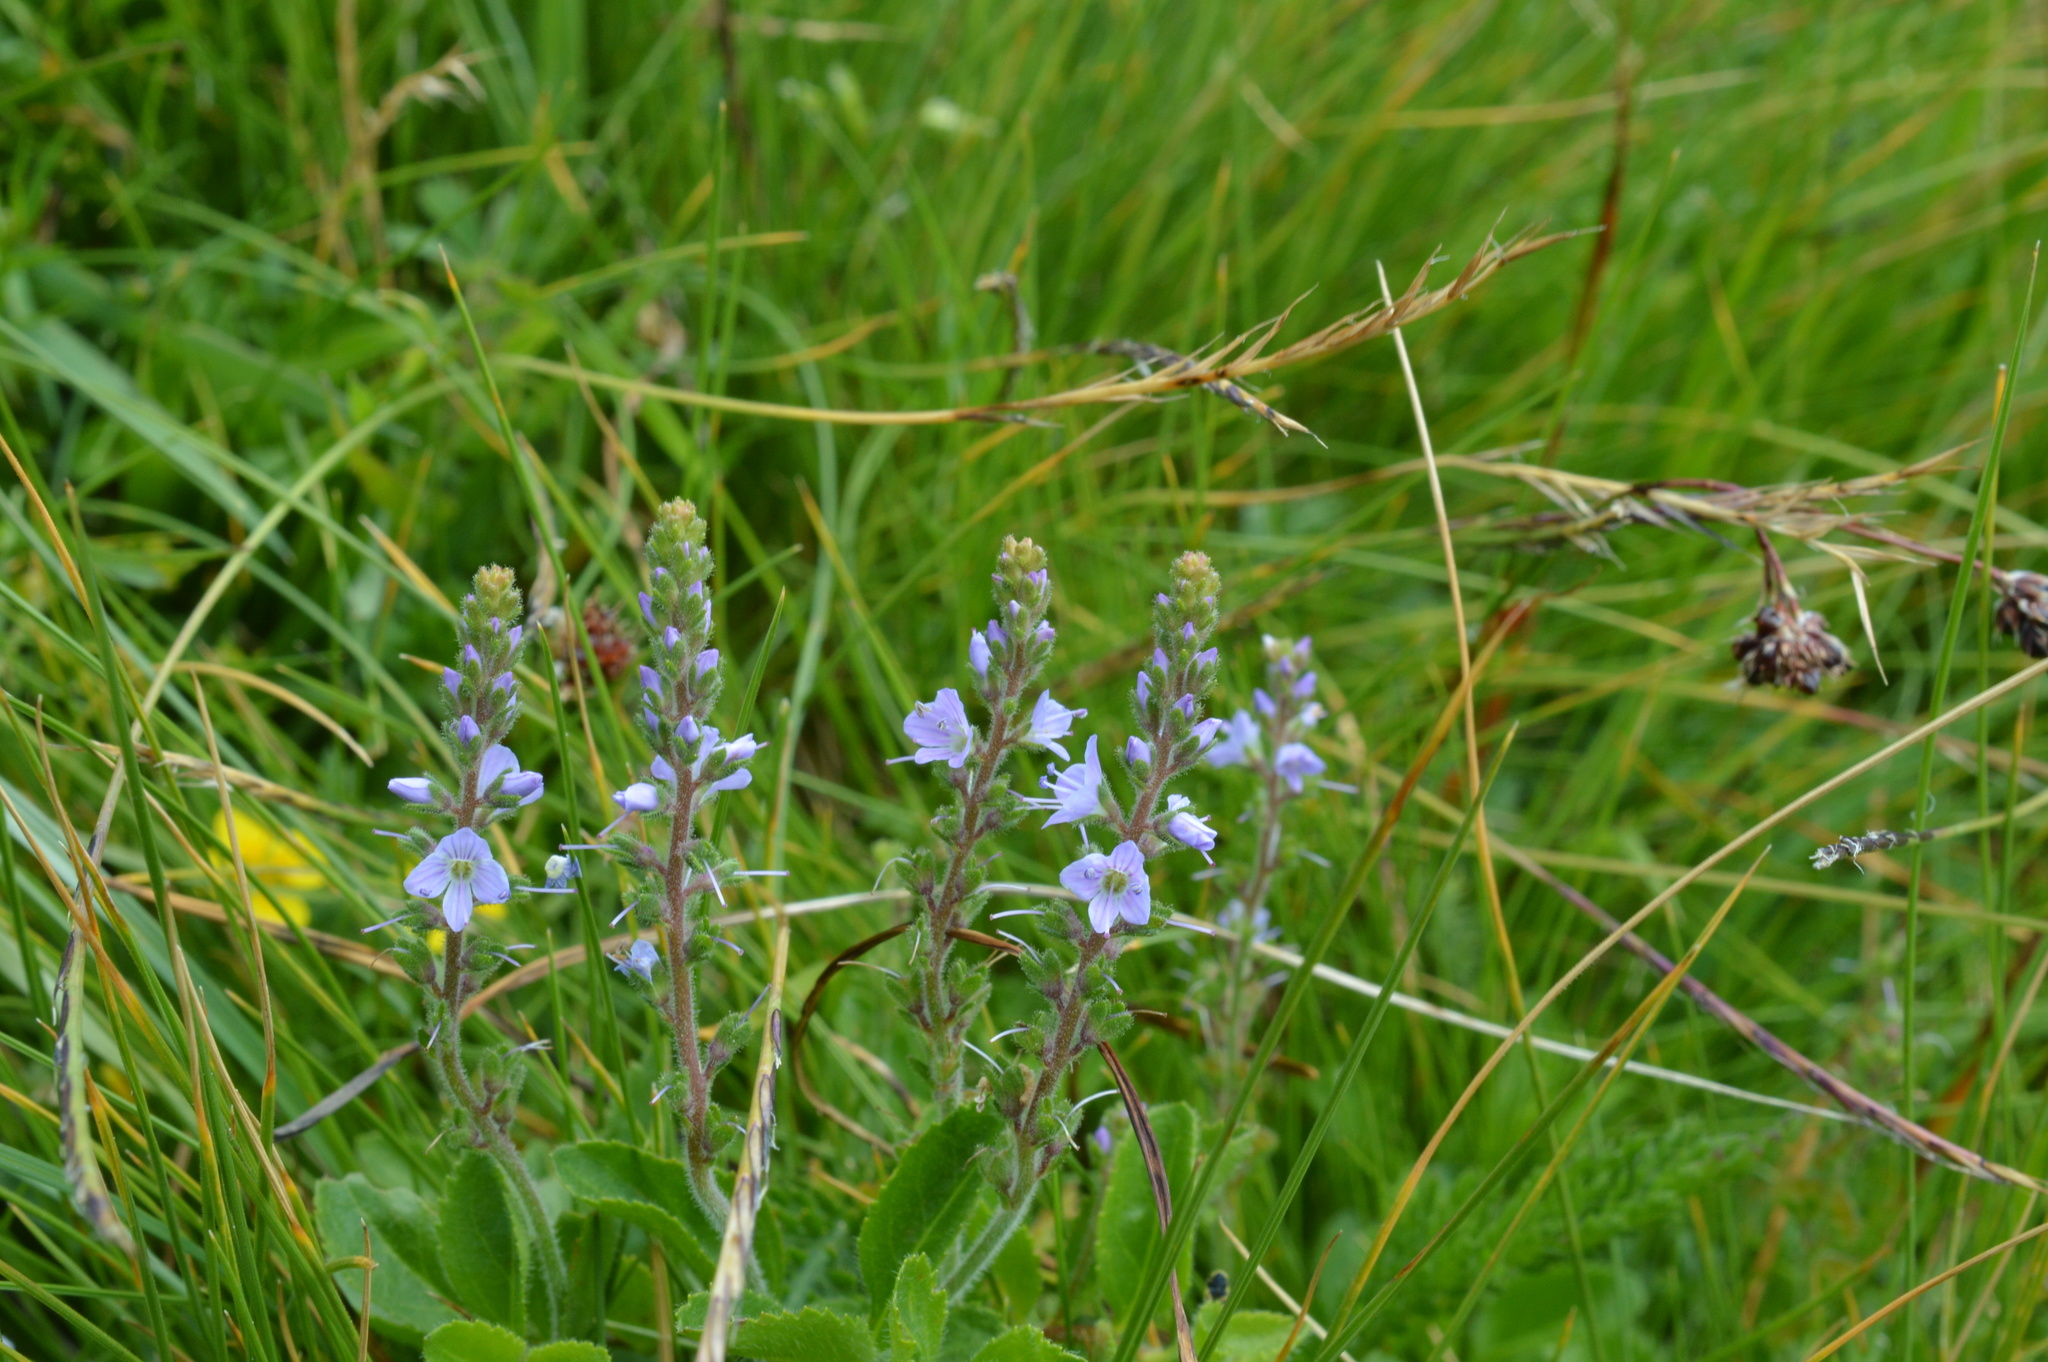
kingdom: Plantae
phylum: Tracheophyta
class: Magnoliopsida
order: Lamiales
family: Plantaginaceae
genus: Veronica
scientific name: Veronica officinalis
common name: Common speedwell
